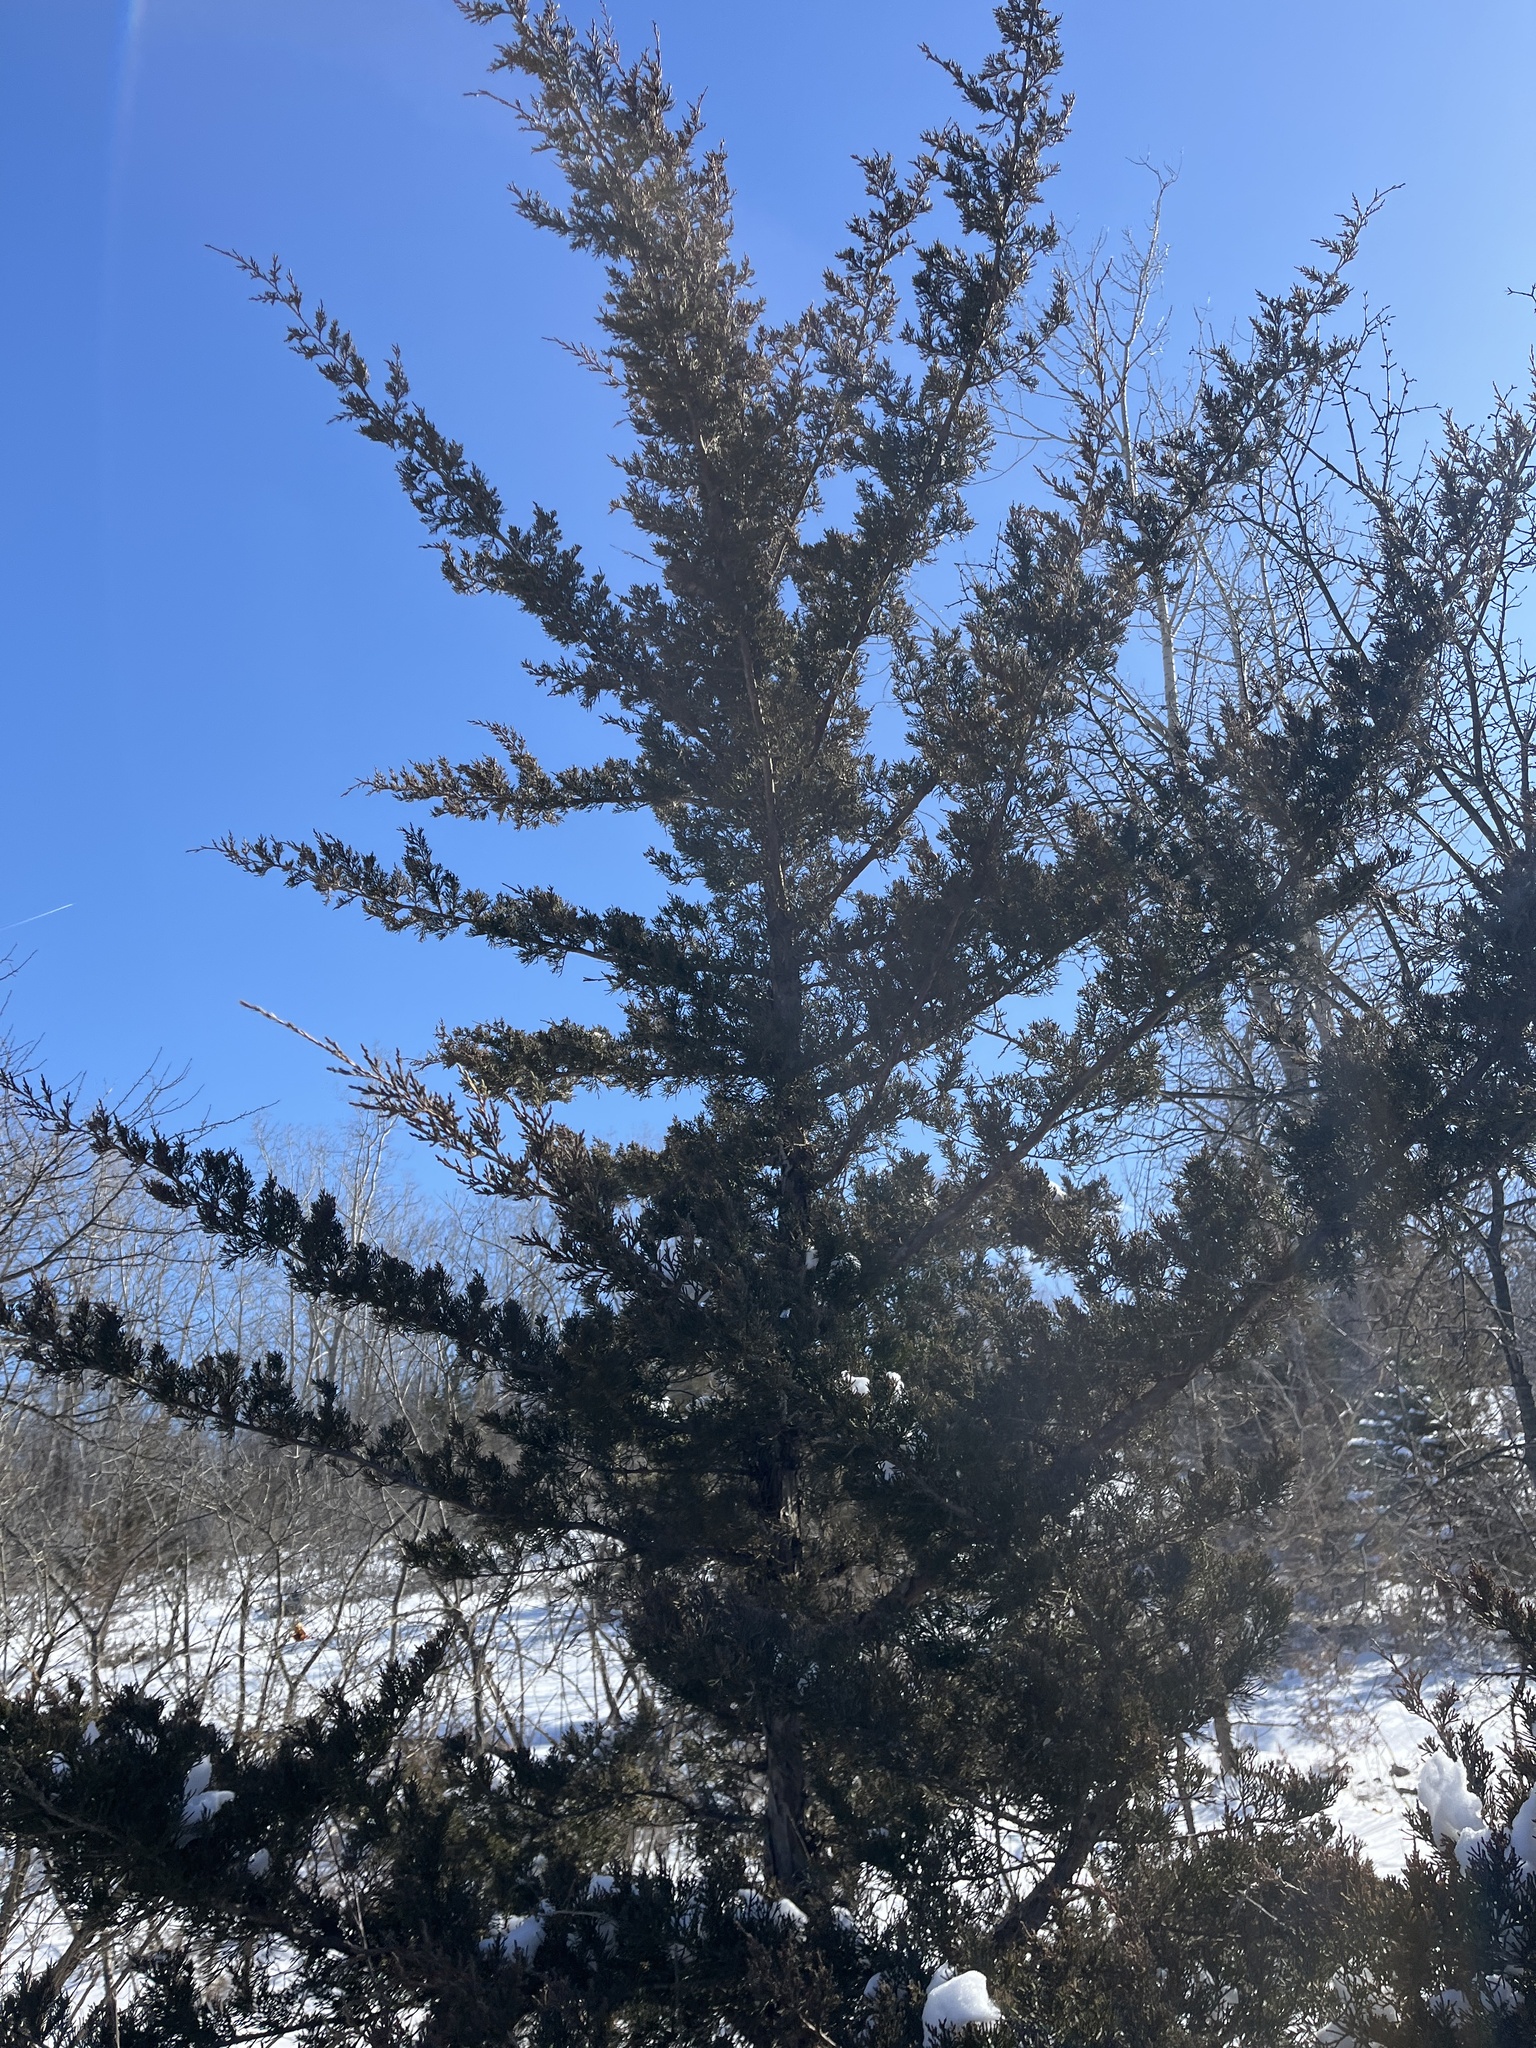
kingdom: Plantae
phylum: Tracheophyta
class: Pinopsida
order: Pinales
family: Cupressaceae
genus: Juniperus
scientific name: Juniperus virginiana
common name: Red juniper
